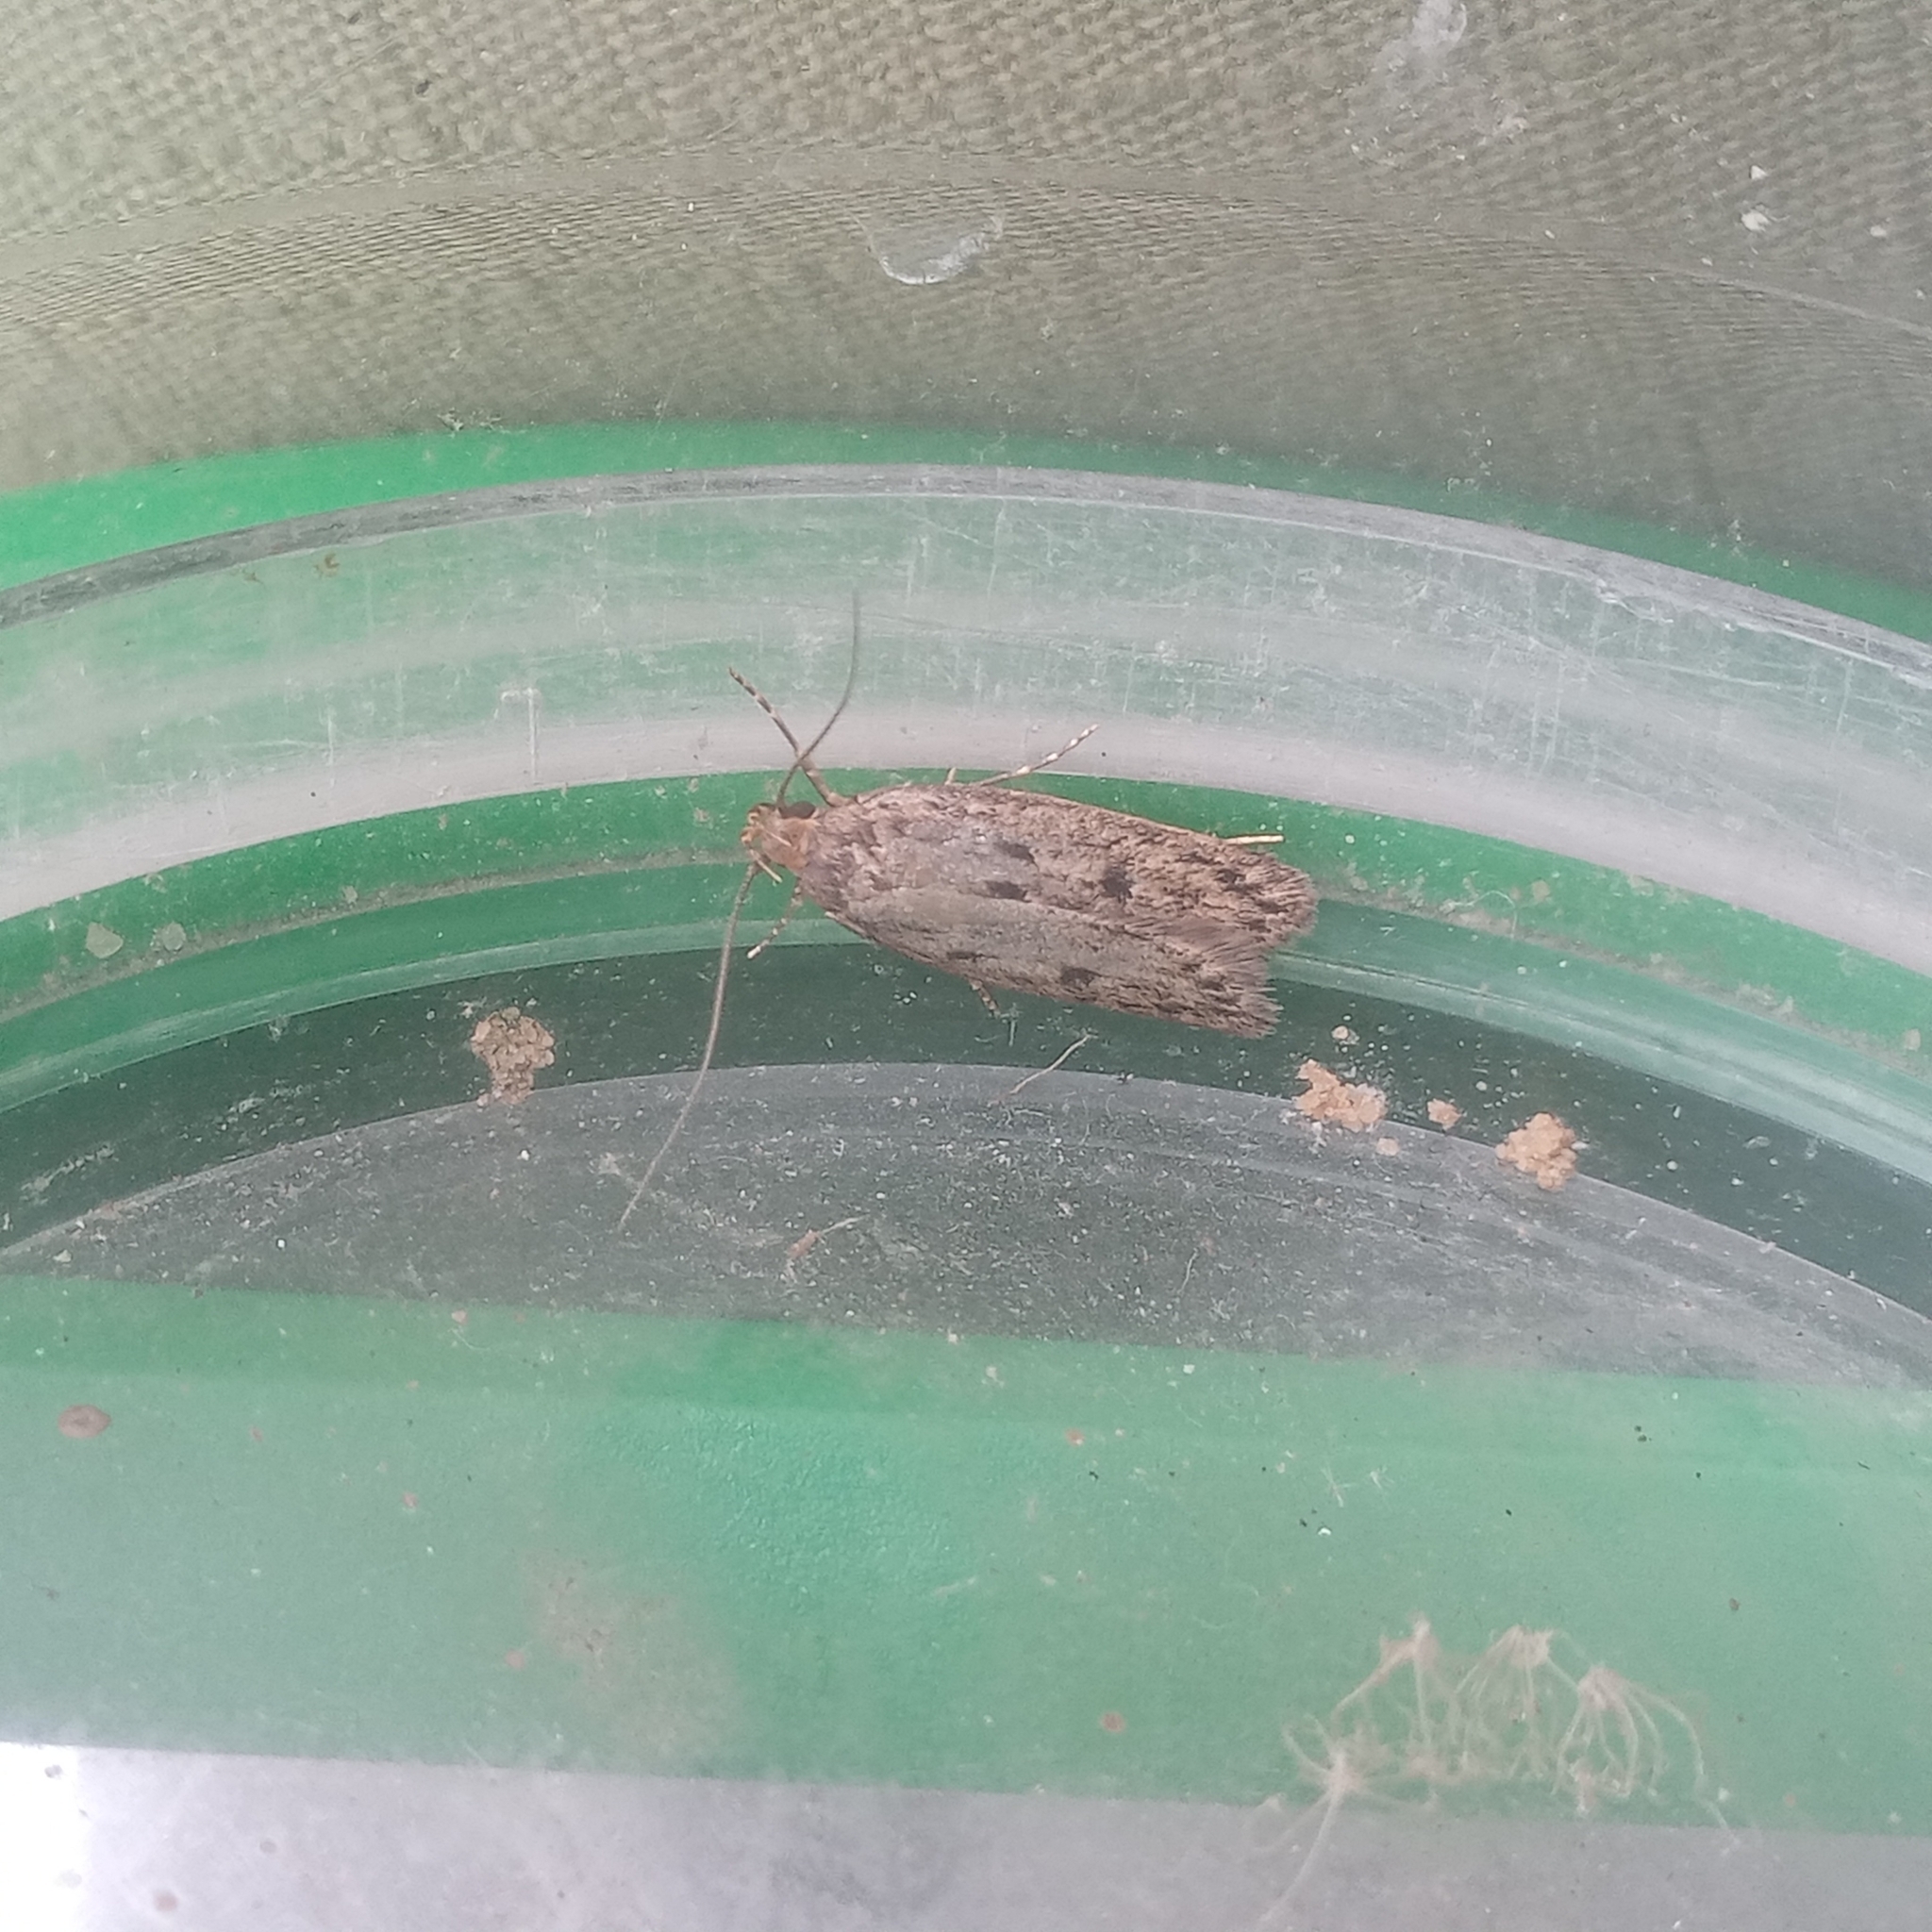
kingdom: Animalia
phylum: Arthropoda
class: Insecta
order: Lepidoptera
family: Oecophoridae
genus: Hofmannophila
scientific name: Hofmannophila pseudospretella
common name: Brown house moth
